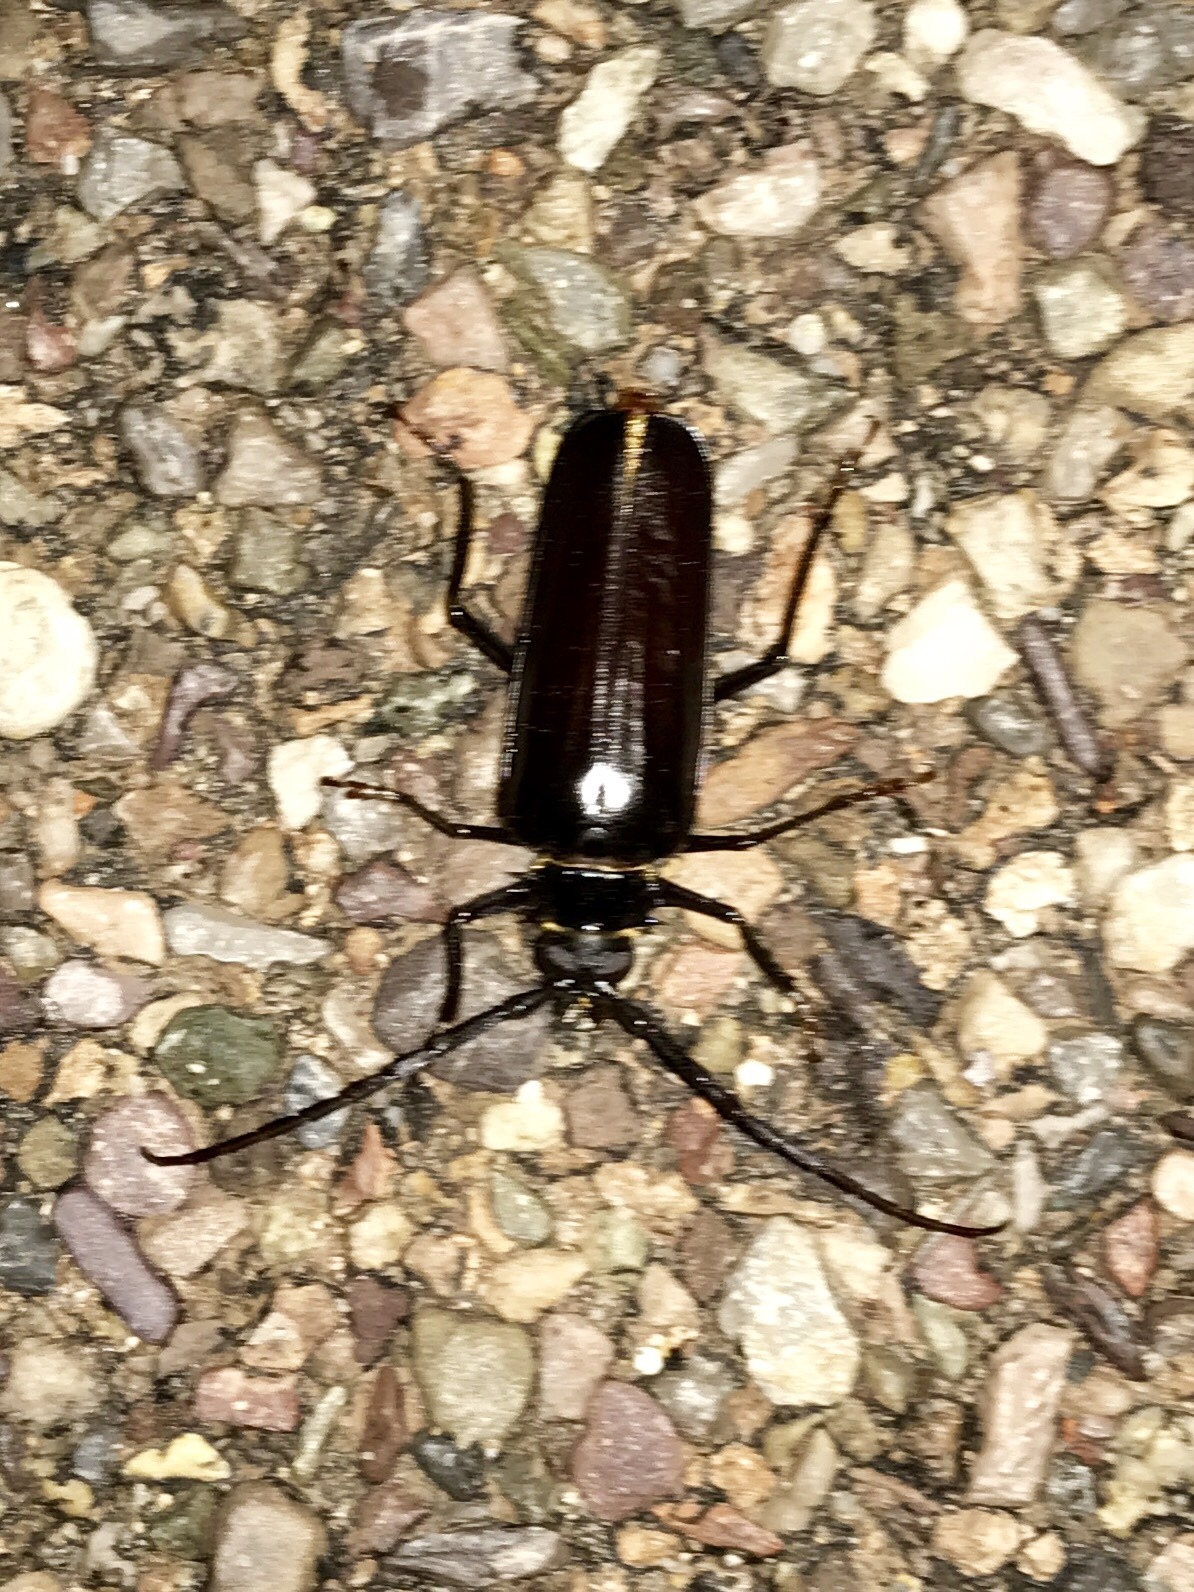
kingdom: Animalia
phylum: Arthropoda
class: Insecta
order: Coleoptera
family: Cerambycidae
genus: Derobrachus
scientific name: Derobrachus geminatus
